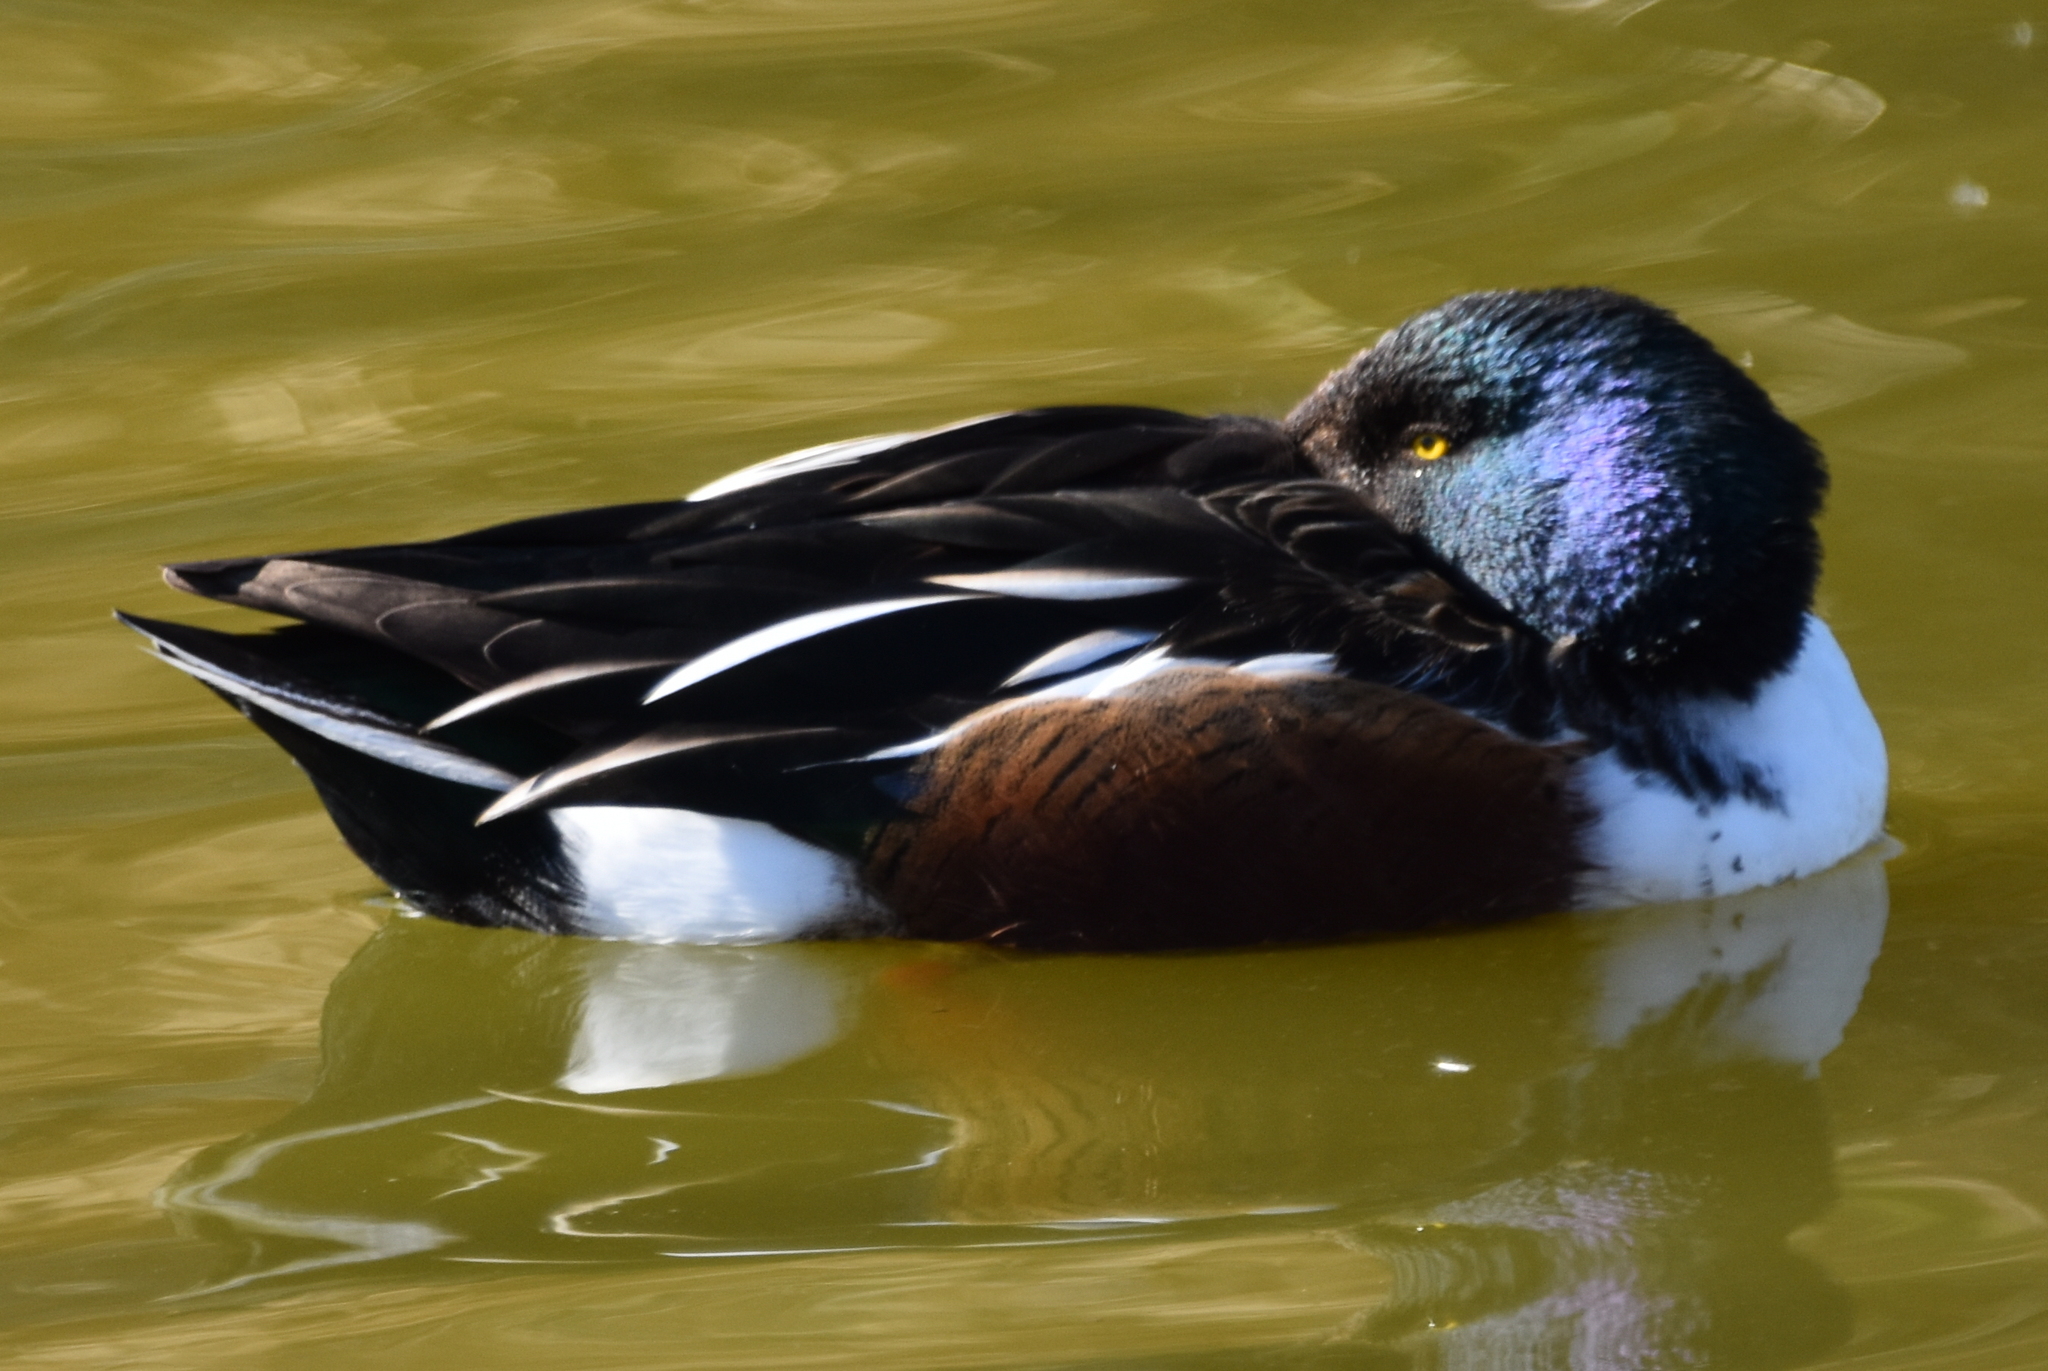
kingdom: Animalia
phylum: Chordata
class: Aves
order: Anseriformes
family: Anatidae
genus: Spatula
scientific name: Spatula clypeata
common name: Northern shoveler
